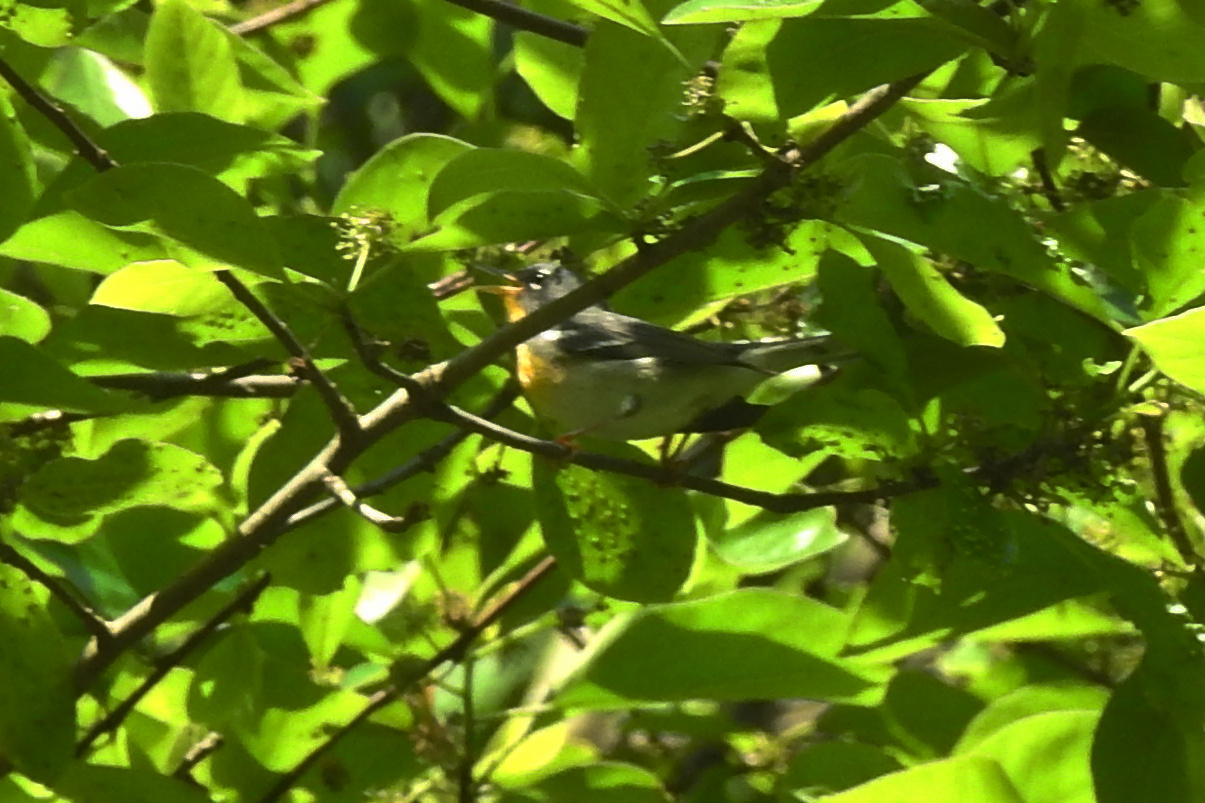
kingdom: Animalia
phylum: Chordata
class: Aves
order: Passeriformes
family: Parulidae
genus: Setophaga
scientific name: Setophaga americana
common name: Northern parula
